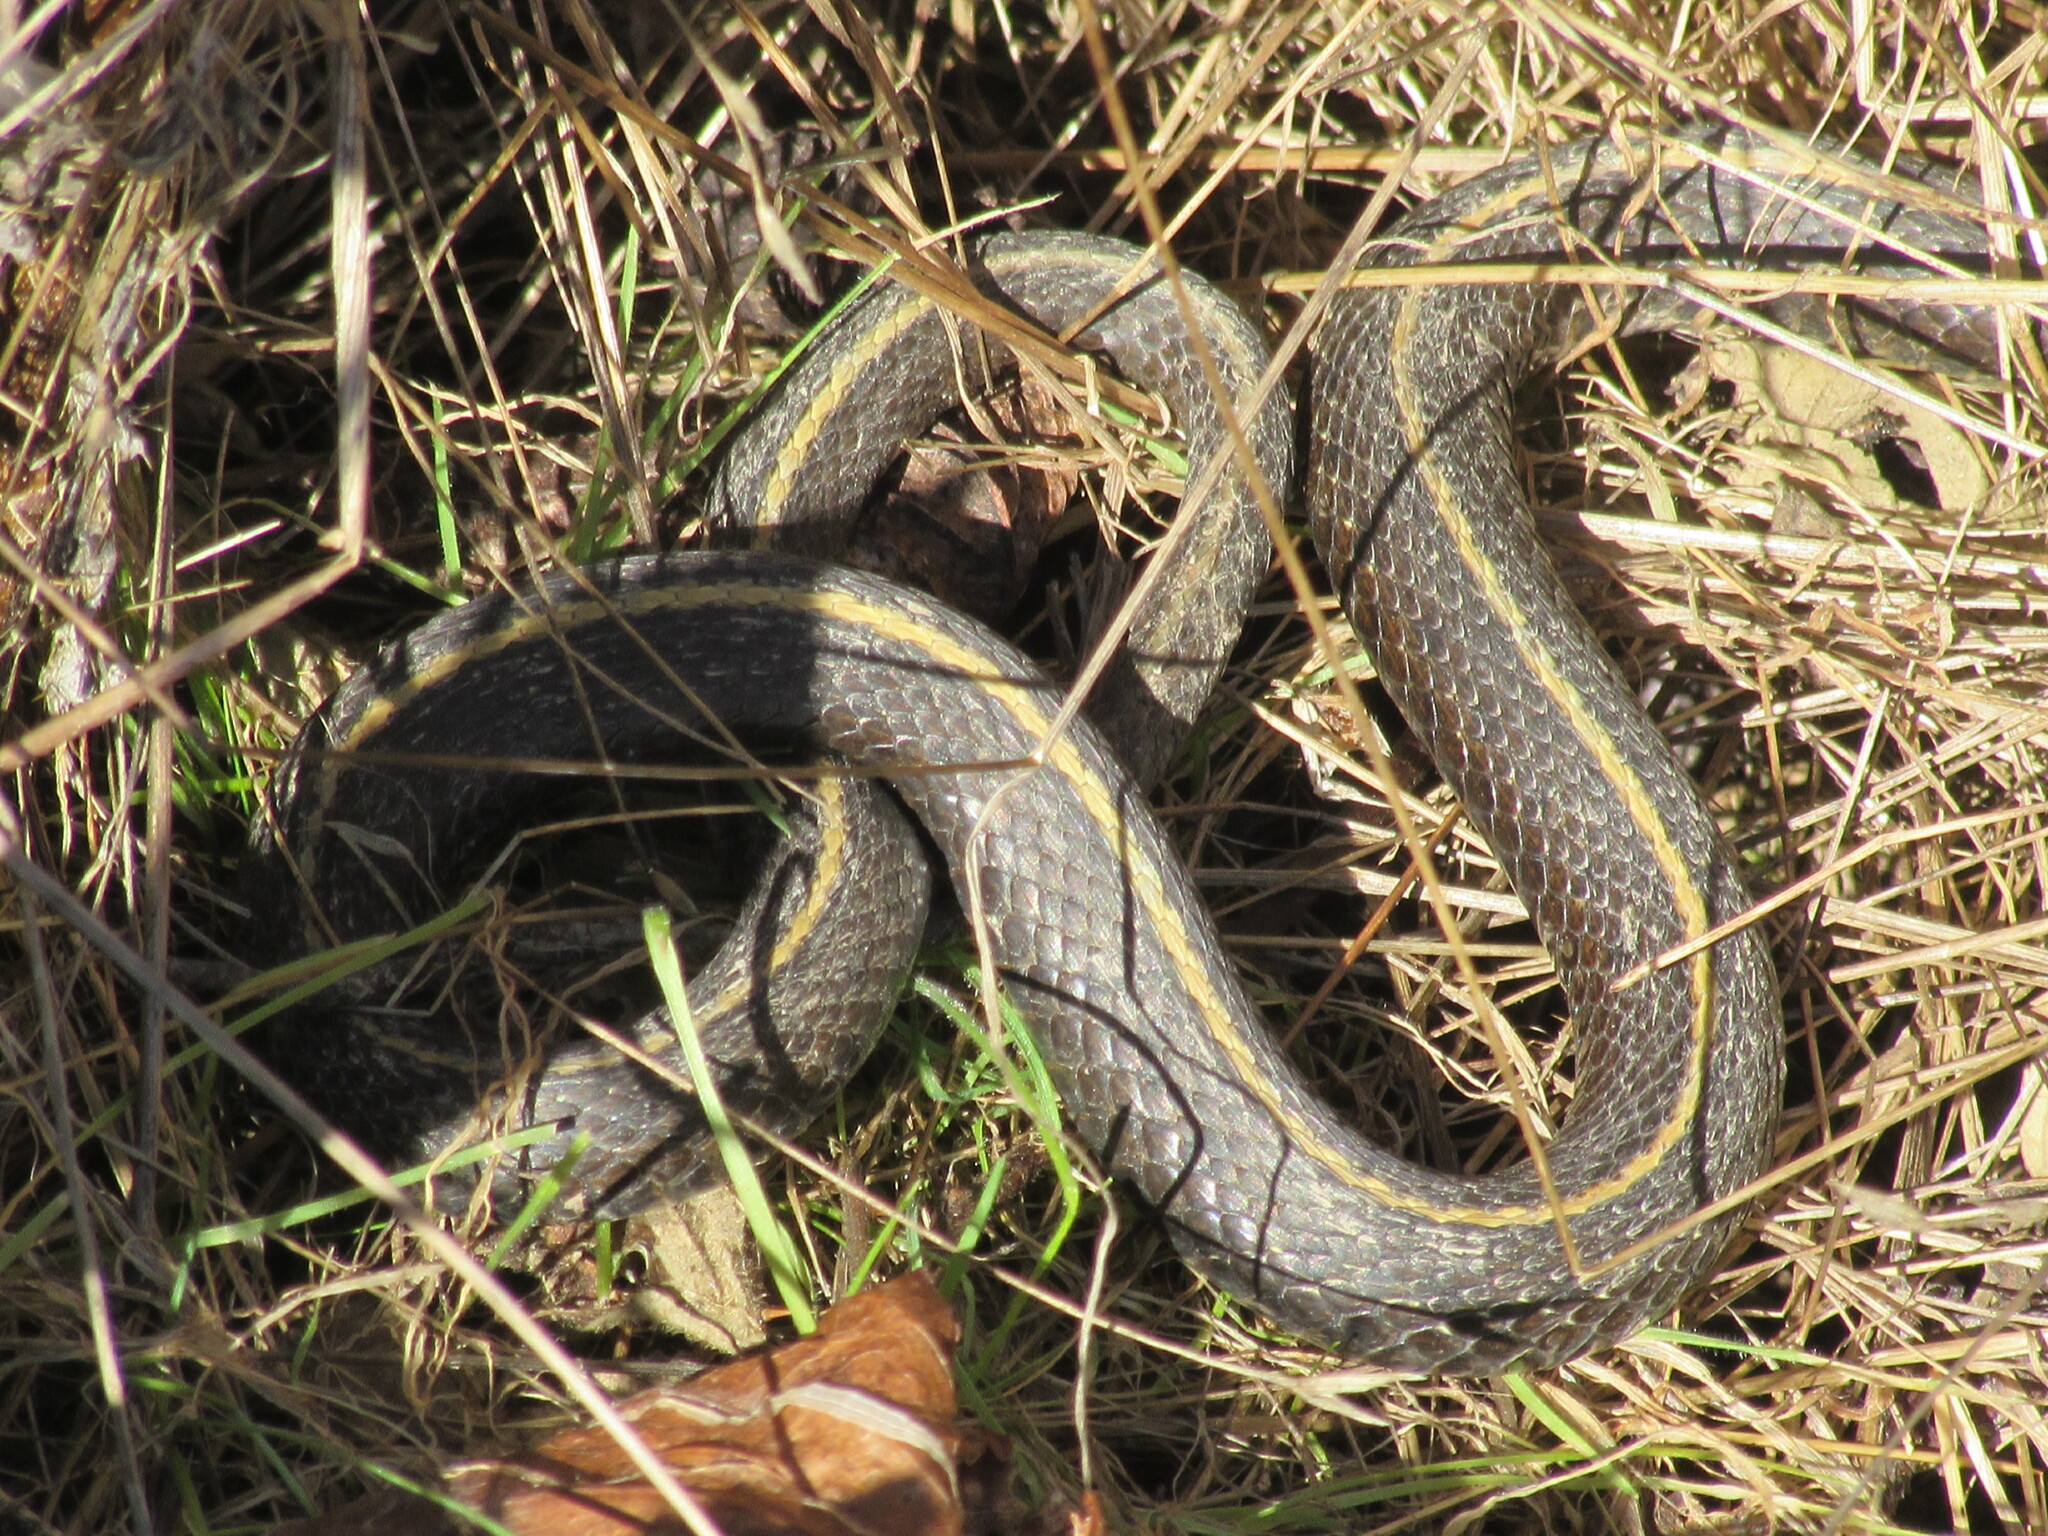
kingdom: Animalia
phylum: Chordata
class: Squamata
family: Colubridae
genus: Thamnophis
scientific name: Thamnophis ordinoides
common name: Northwestern garter snake
